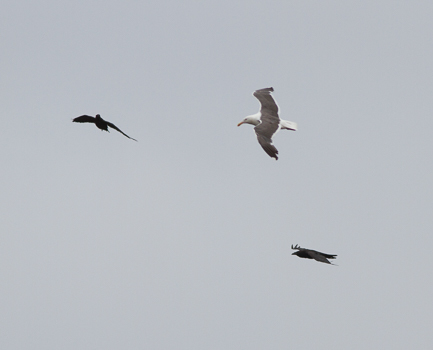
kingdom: Animalia
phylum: Chordata
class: Aves
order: Passeriformes
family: Corvidae
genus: Corvus
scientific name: Corvus corax
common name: Common raven
